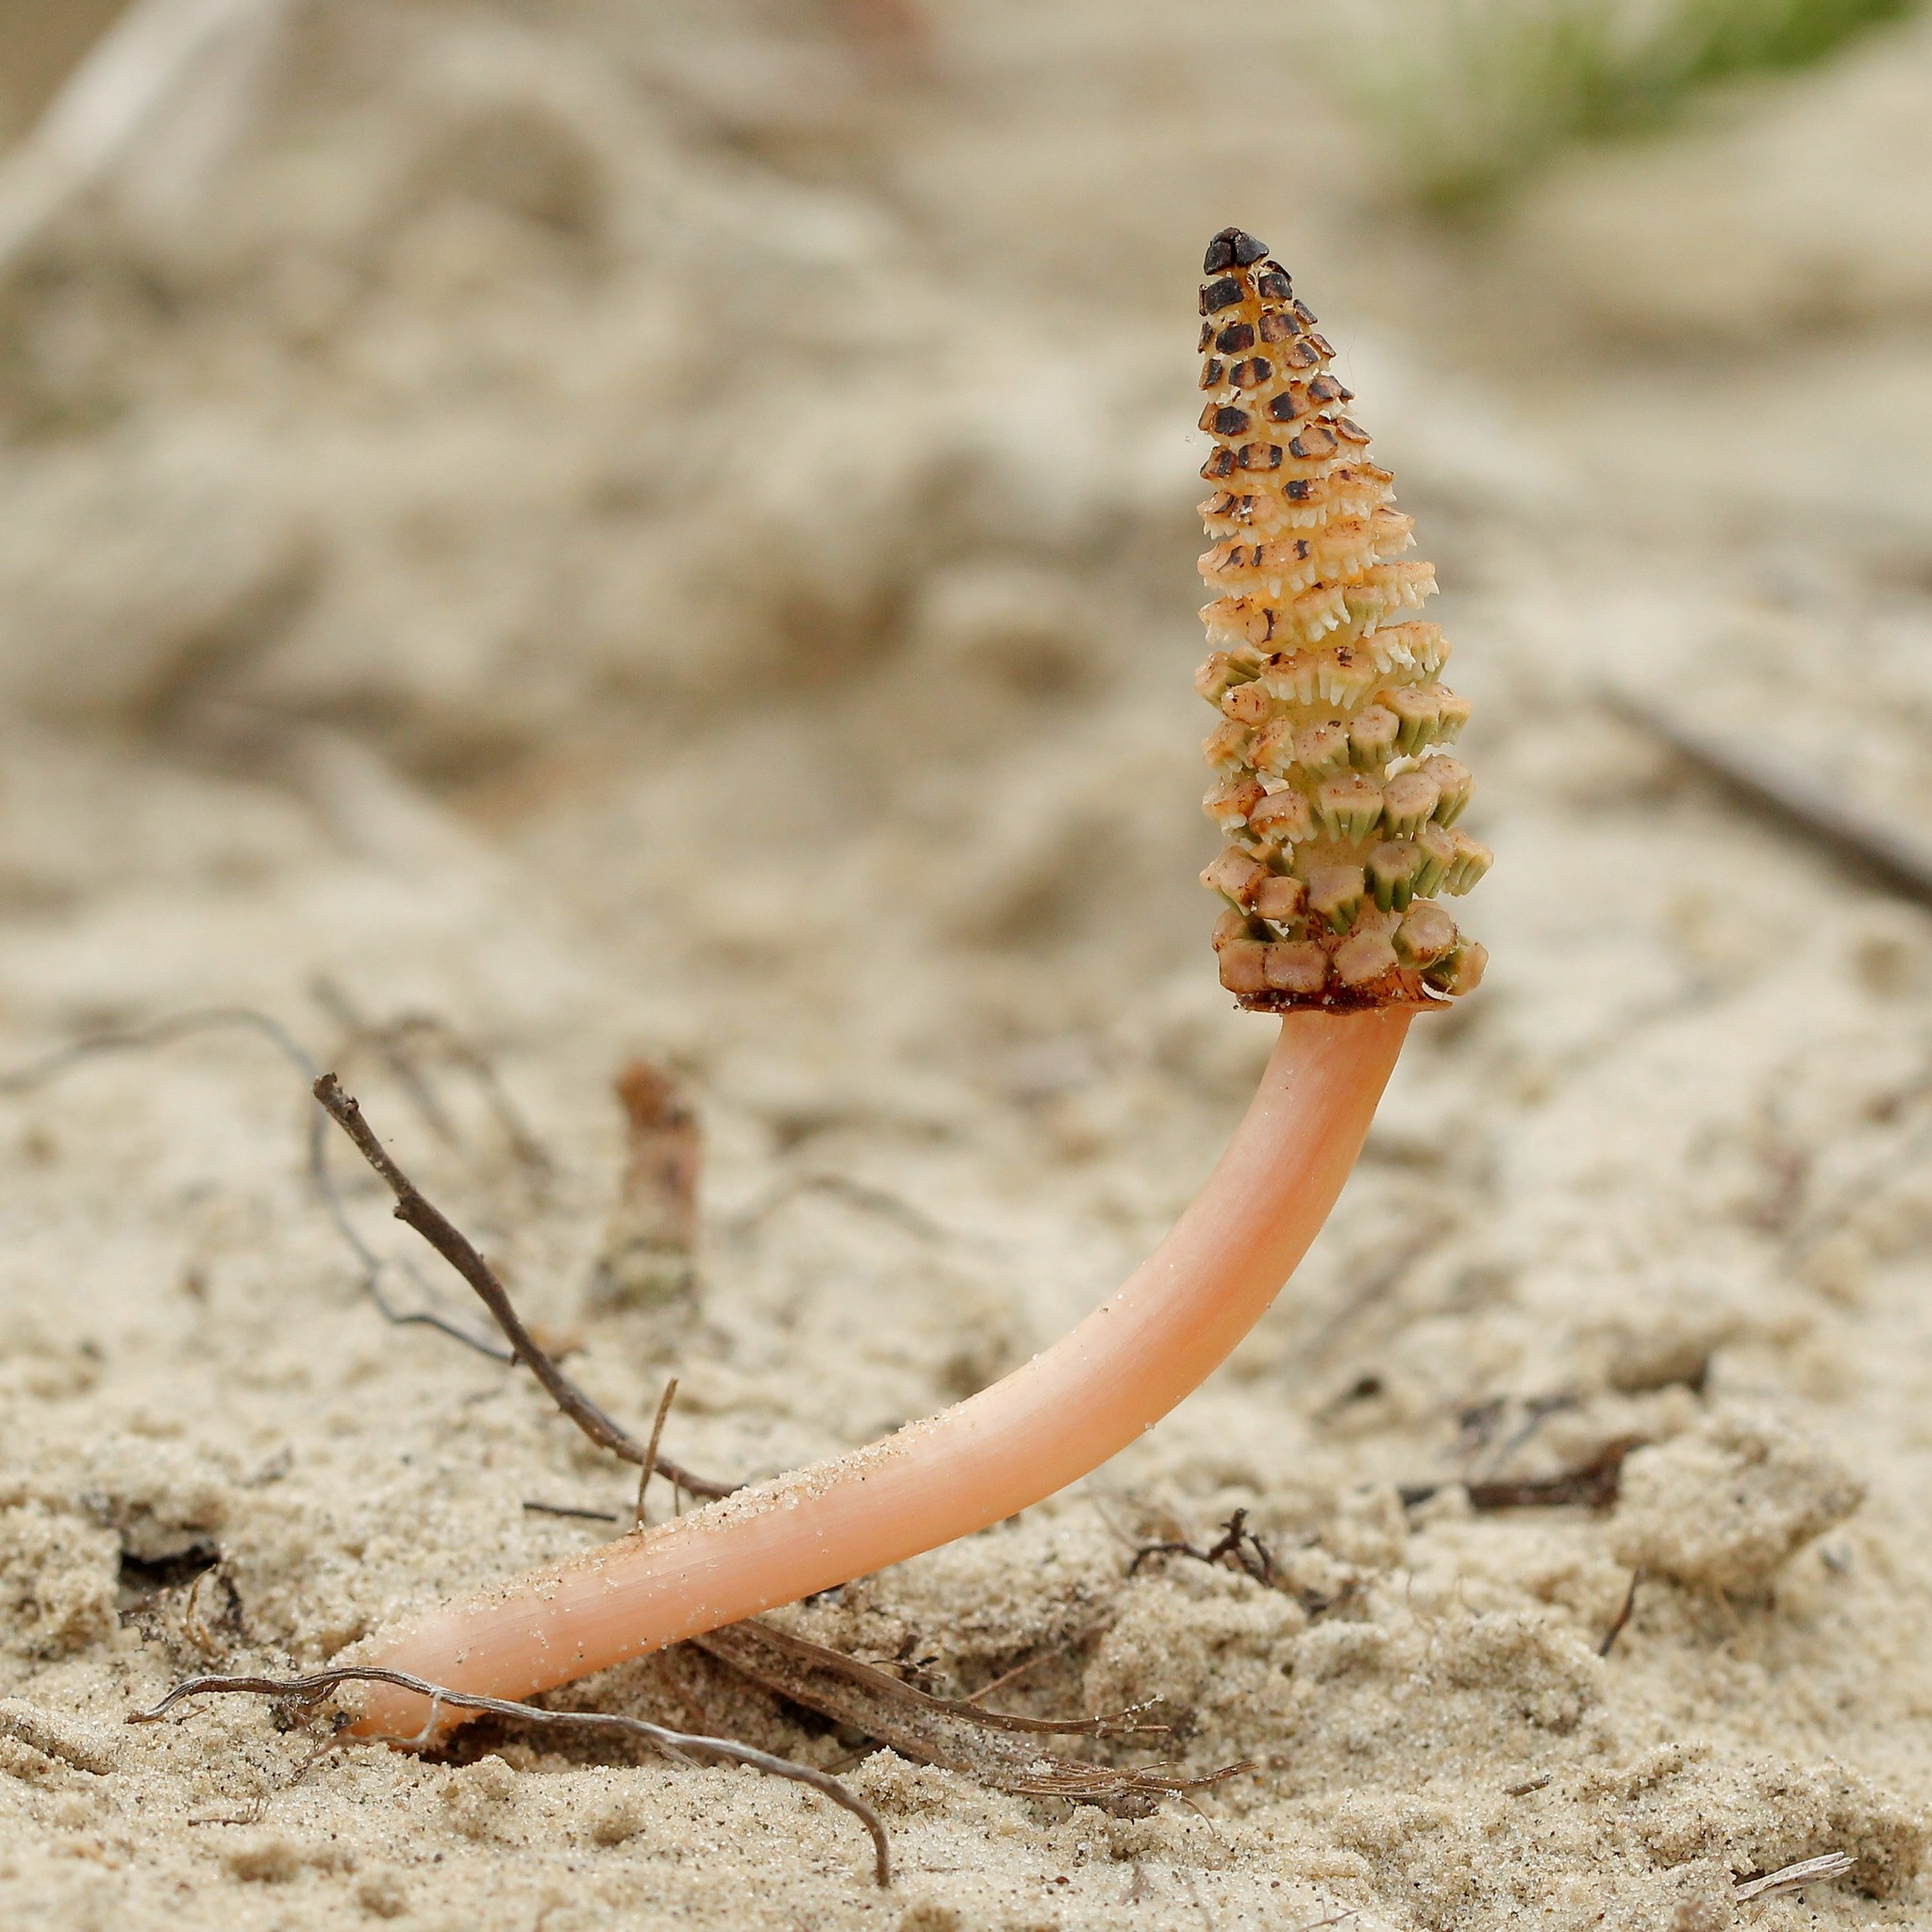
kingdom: Plantae
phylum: Tracheophyta
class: Polypodiopsida
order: Equisetales
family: Equisetaceae
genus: Equisetum
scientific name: Equisetum arvense
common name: Field horsetail
